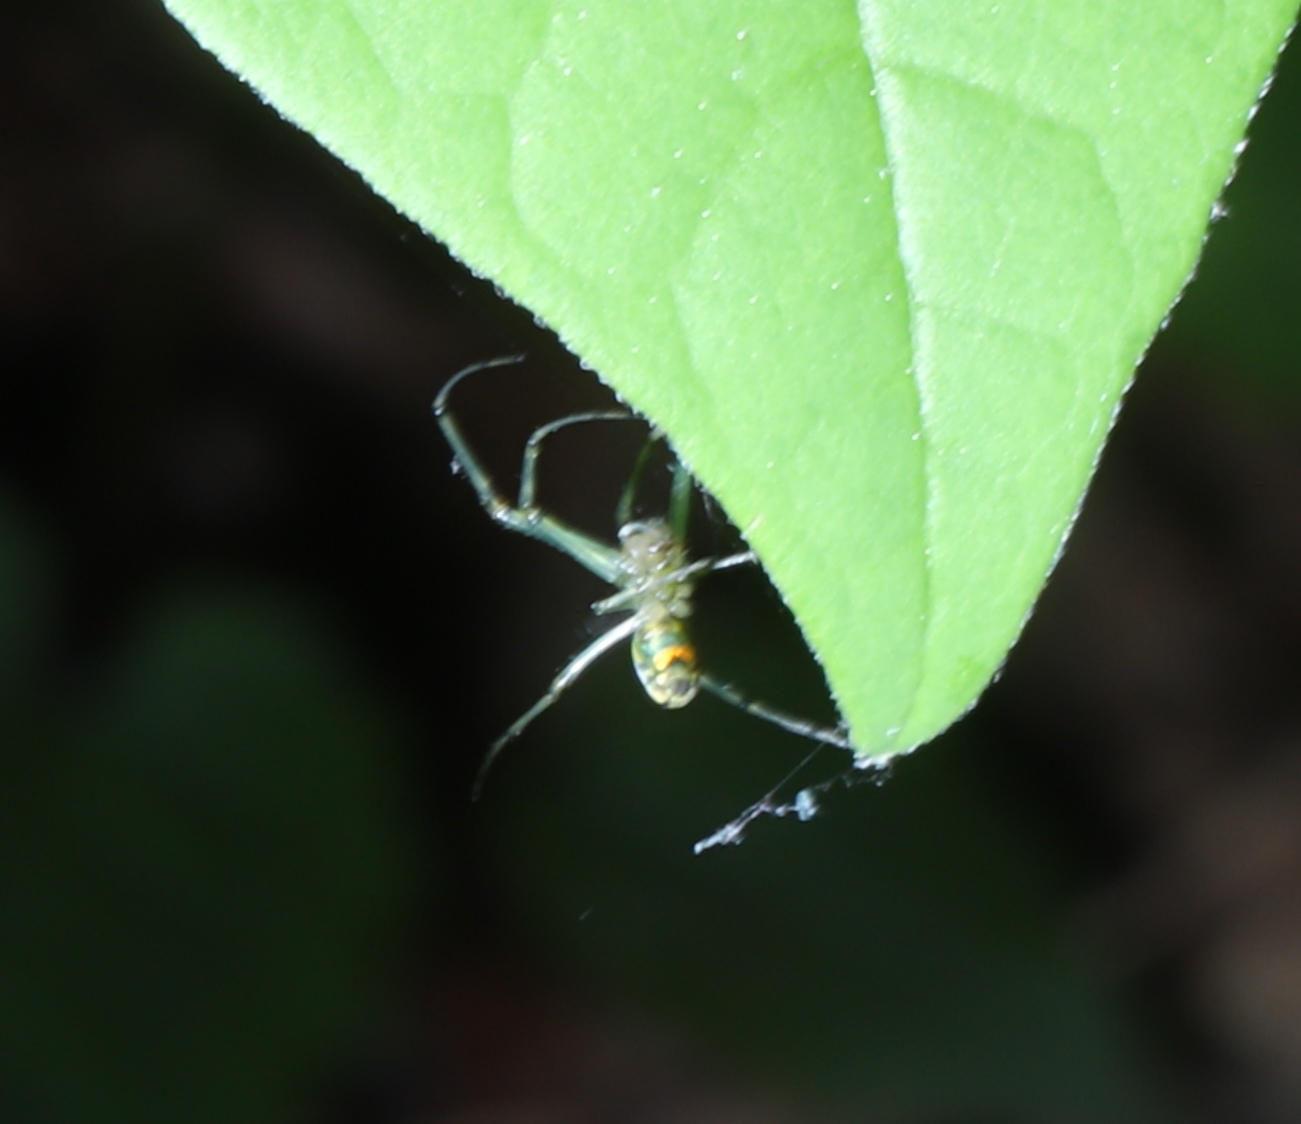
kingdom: Animalia
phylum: Arthropoda
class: Arachnida
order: Araneae
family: Tetragnathidae
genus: Leucauge
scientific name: Leucauge venusta
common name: Longjawed orb weavers
